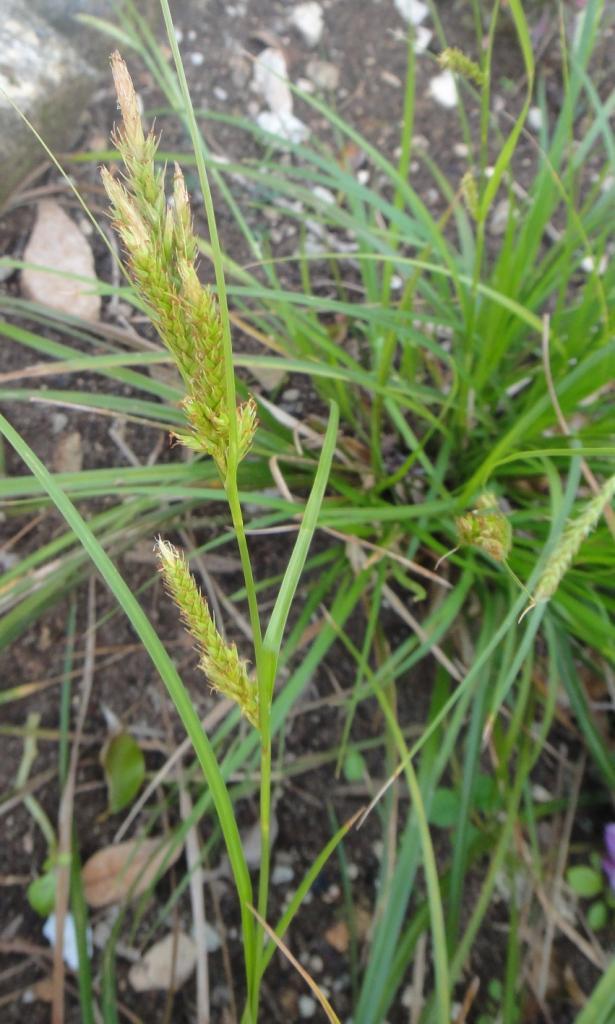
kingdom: Plantae
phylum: Tracheophyta
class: Liliopsida
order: Poales
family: Cyperaceae
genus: Carex
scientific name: Carex bermudiana
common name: Bermuda sedge
